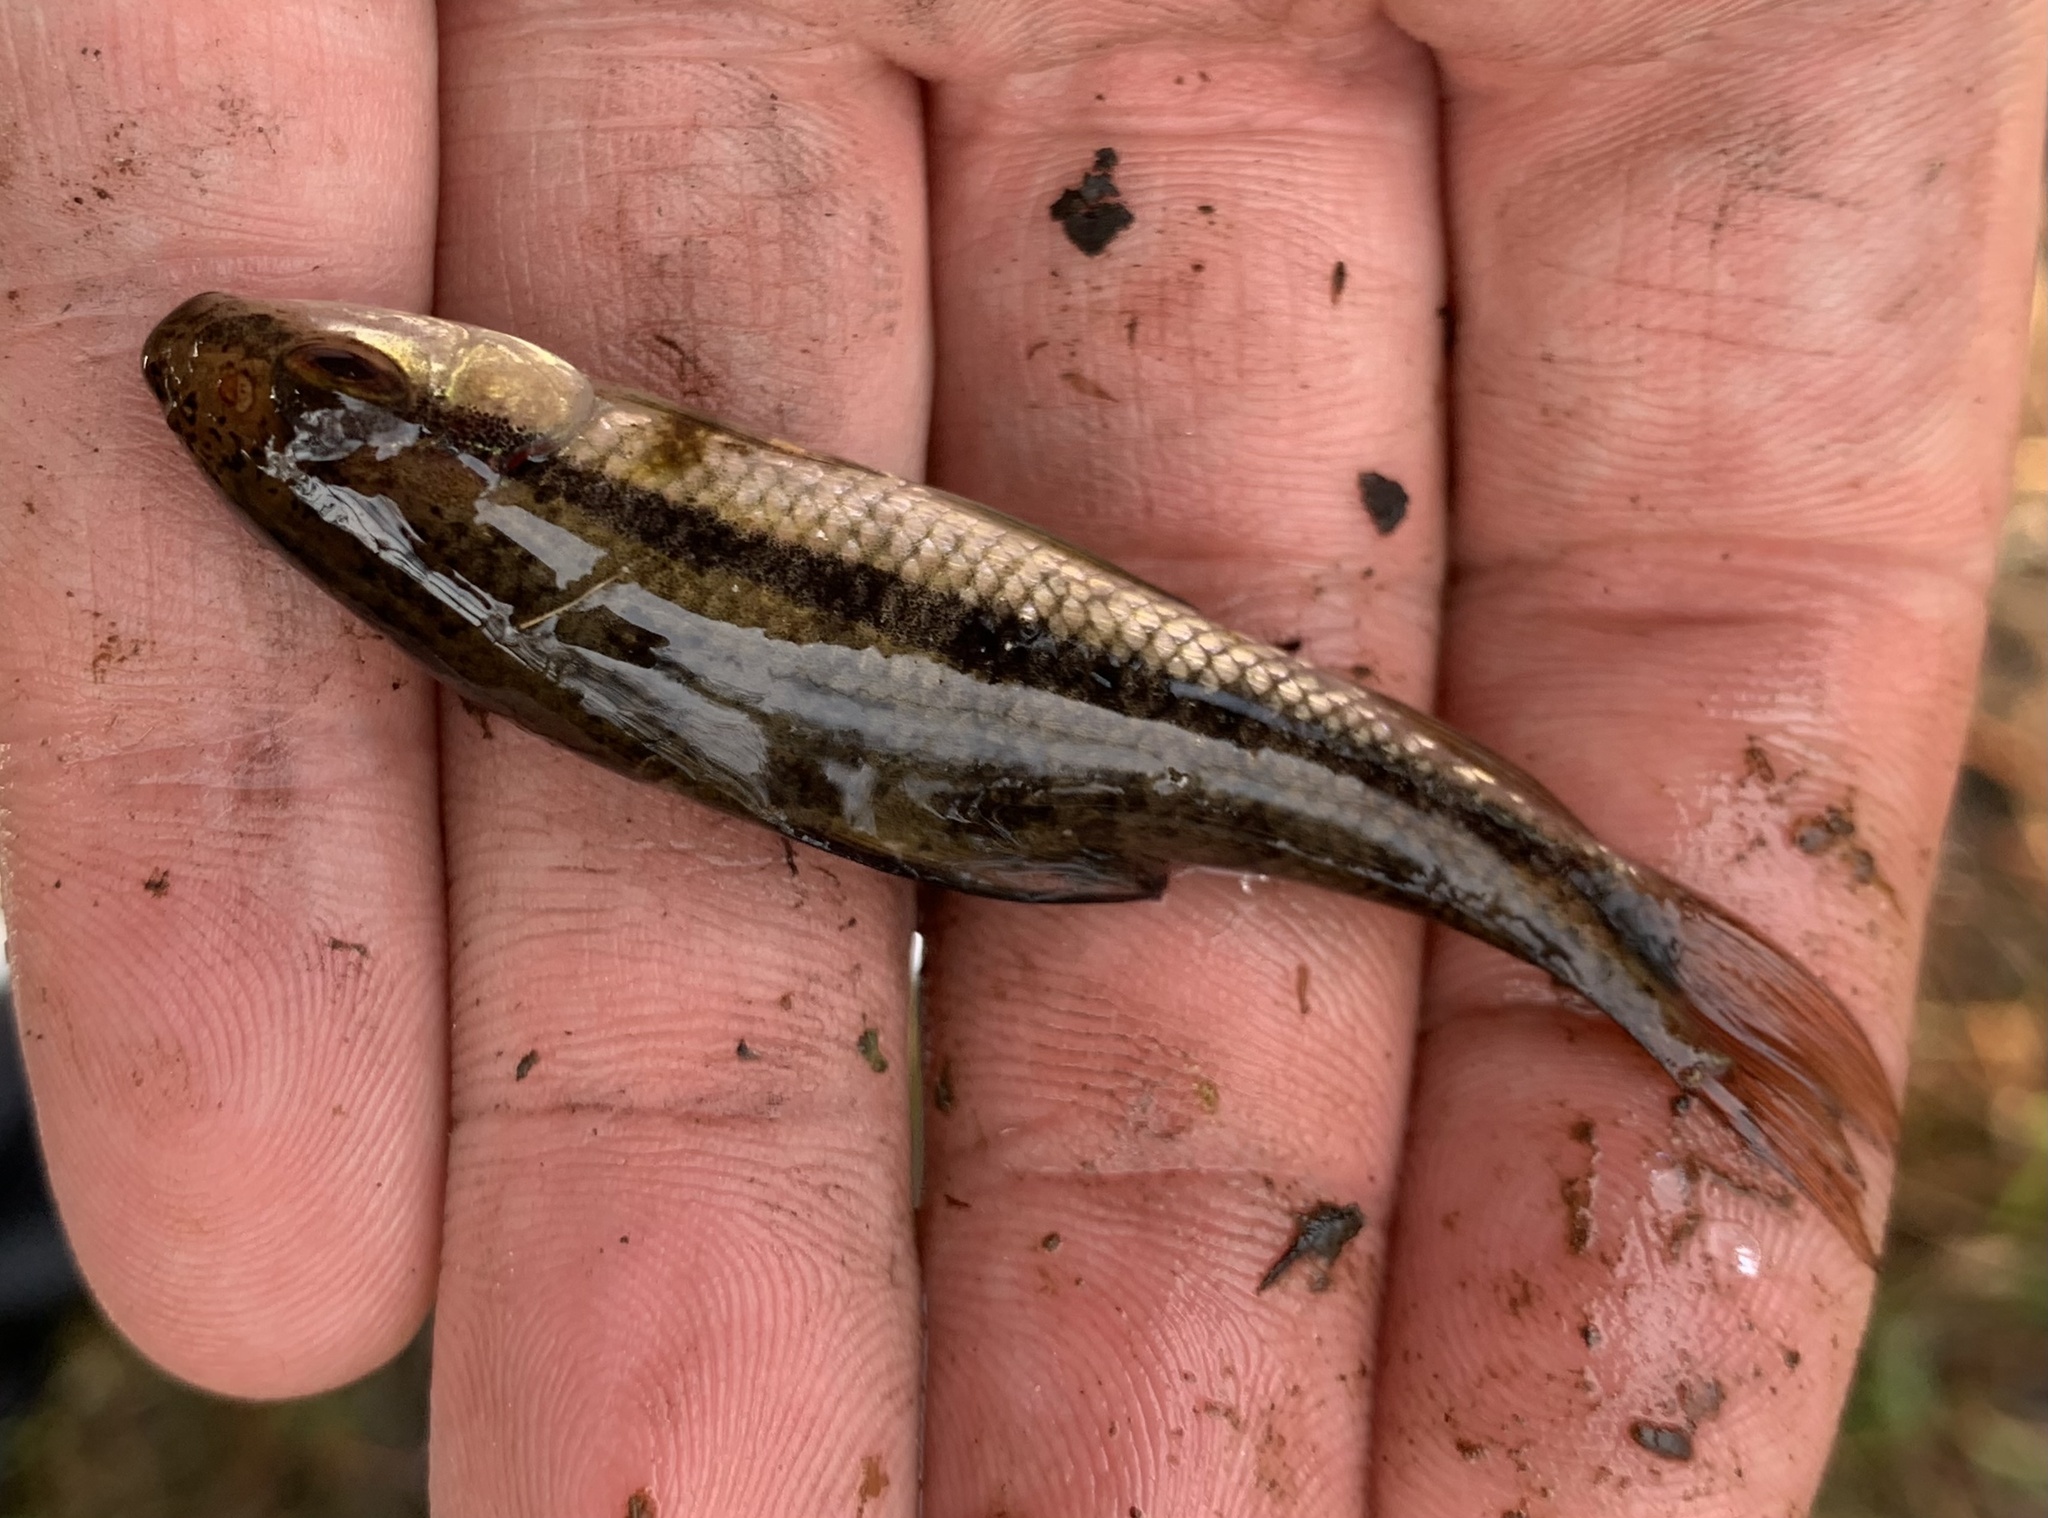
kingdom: Animalia
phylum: Chordata
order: Cypriniformes
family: Catostomidae
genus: Erimyzon
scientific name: Erimyzon oblongus
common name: Eastern creek chubsucker
